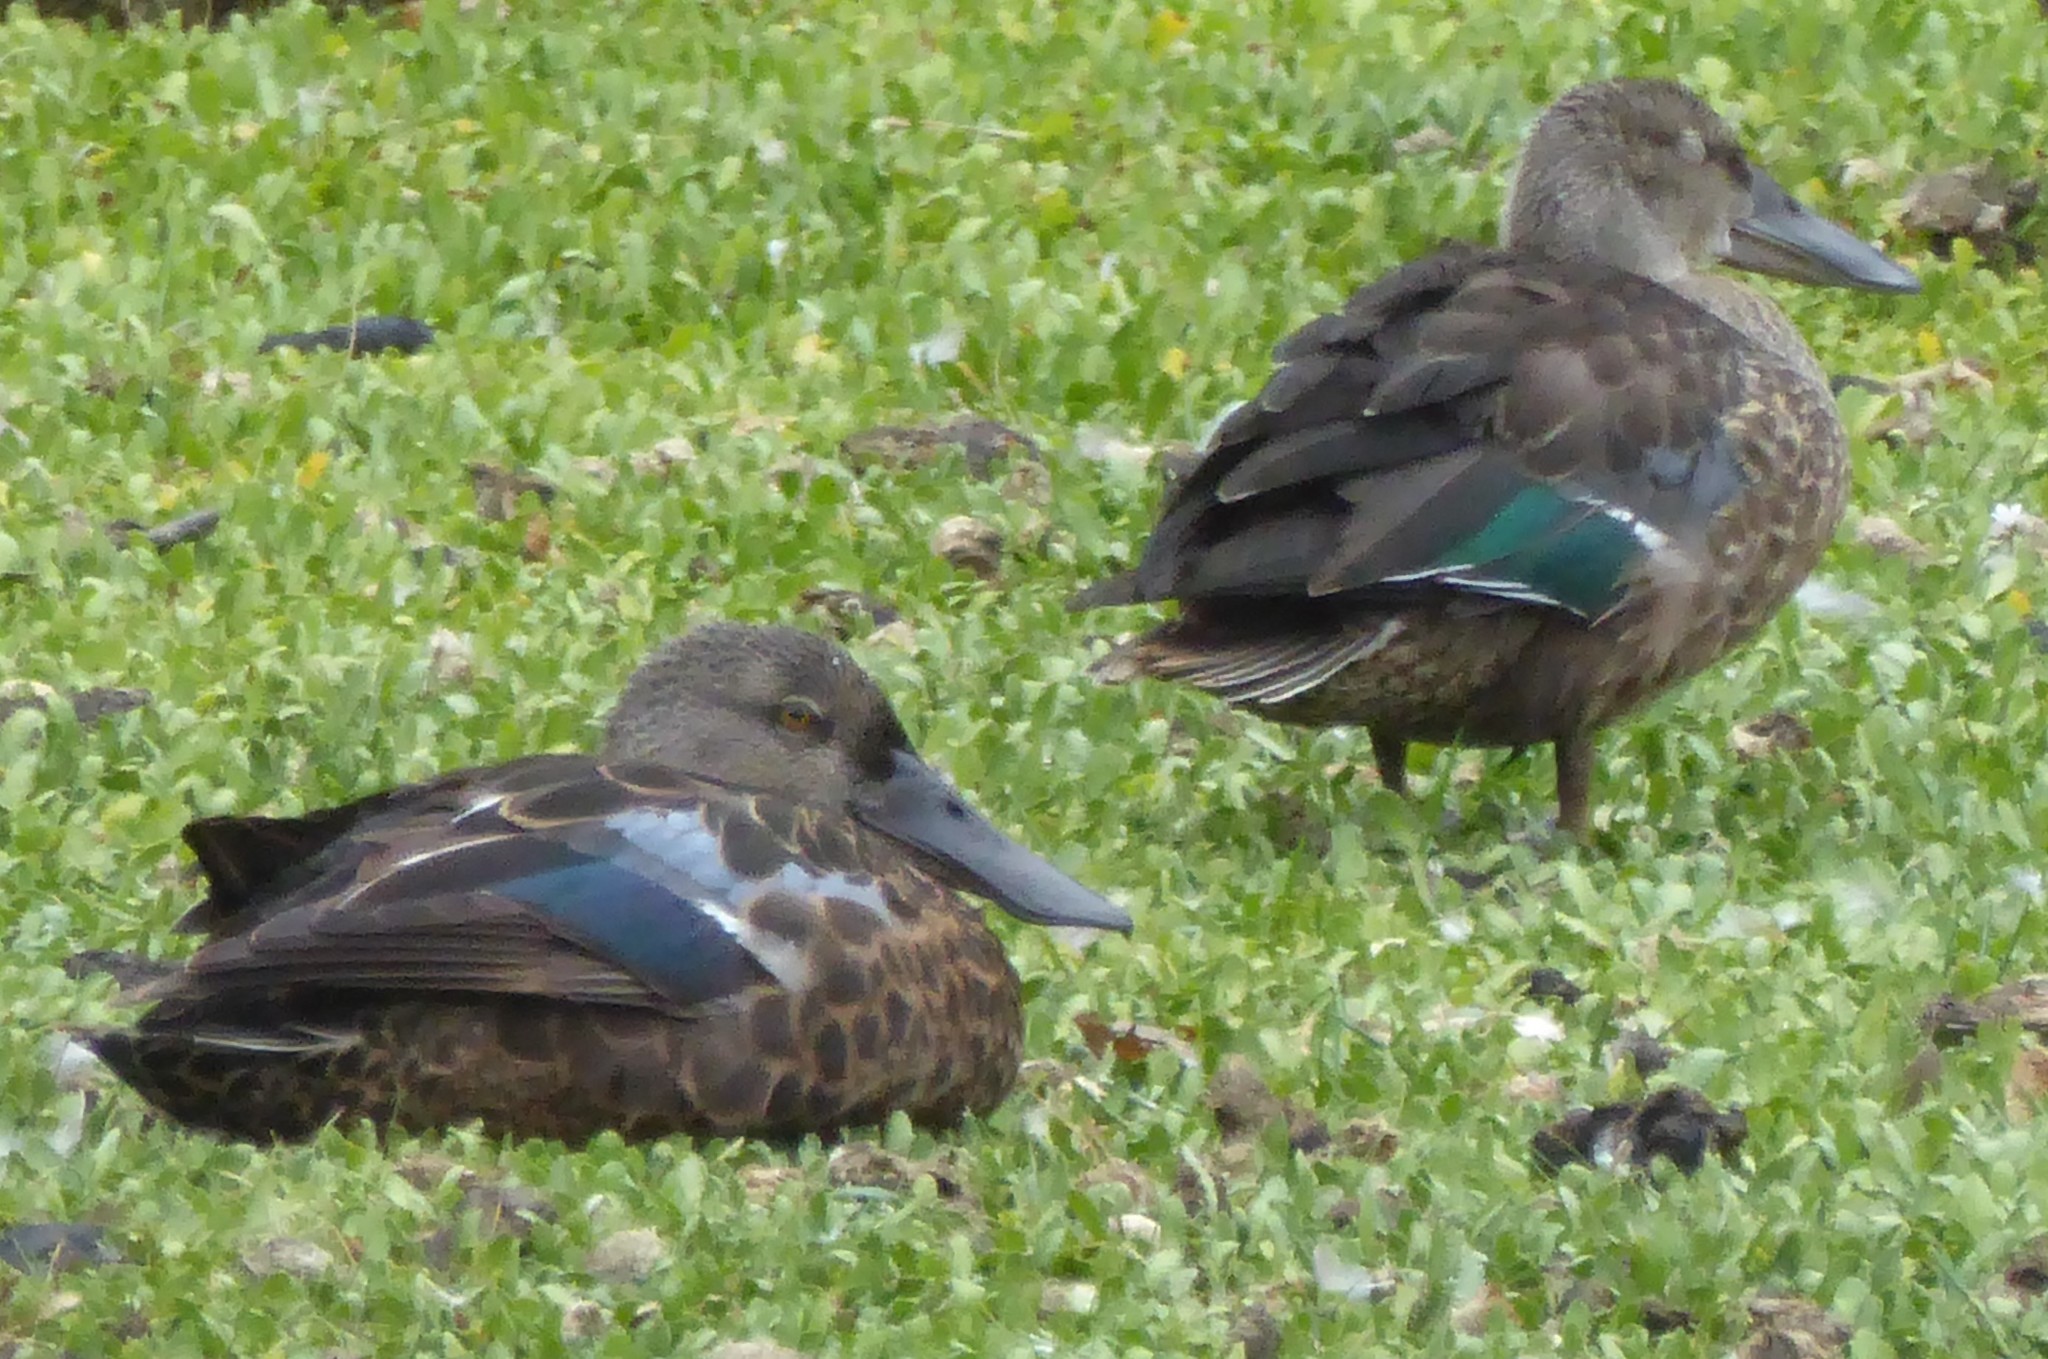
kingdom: Animalia
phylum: Chordata
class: Aves
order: Anseriformes
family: Anatidae
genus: Spatula
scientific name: Spatula rhynchotis
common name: Australian shoveler
